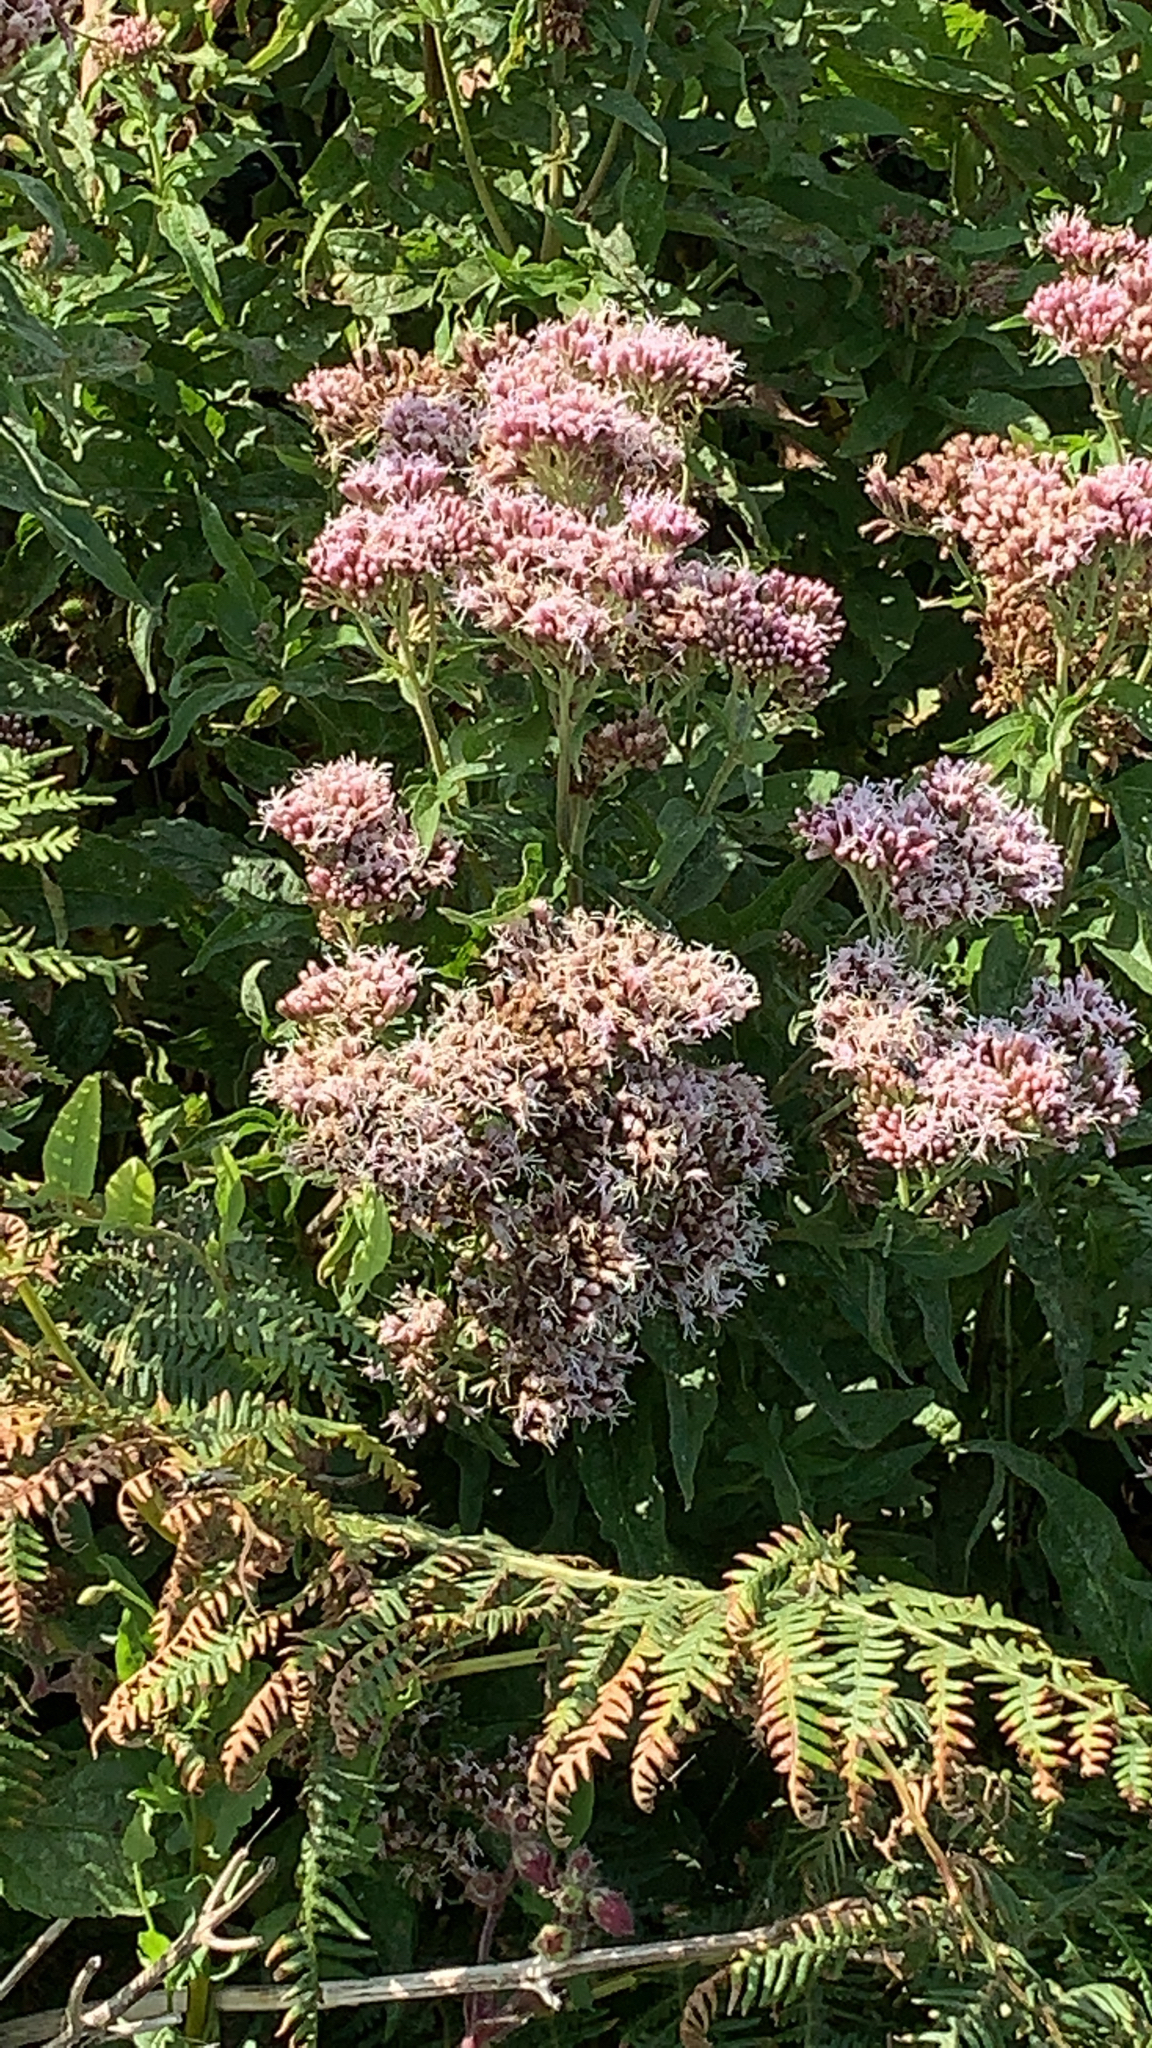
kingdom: Plantae
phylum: Tracheophyta
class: Magnoliopsida
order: Asterales
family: Asteraceae
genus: Eupatorium
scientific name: Eupatorium cannabinum
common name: Hemp-agrimony
